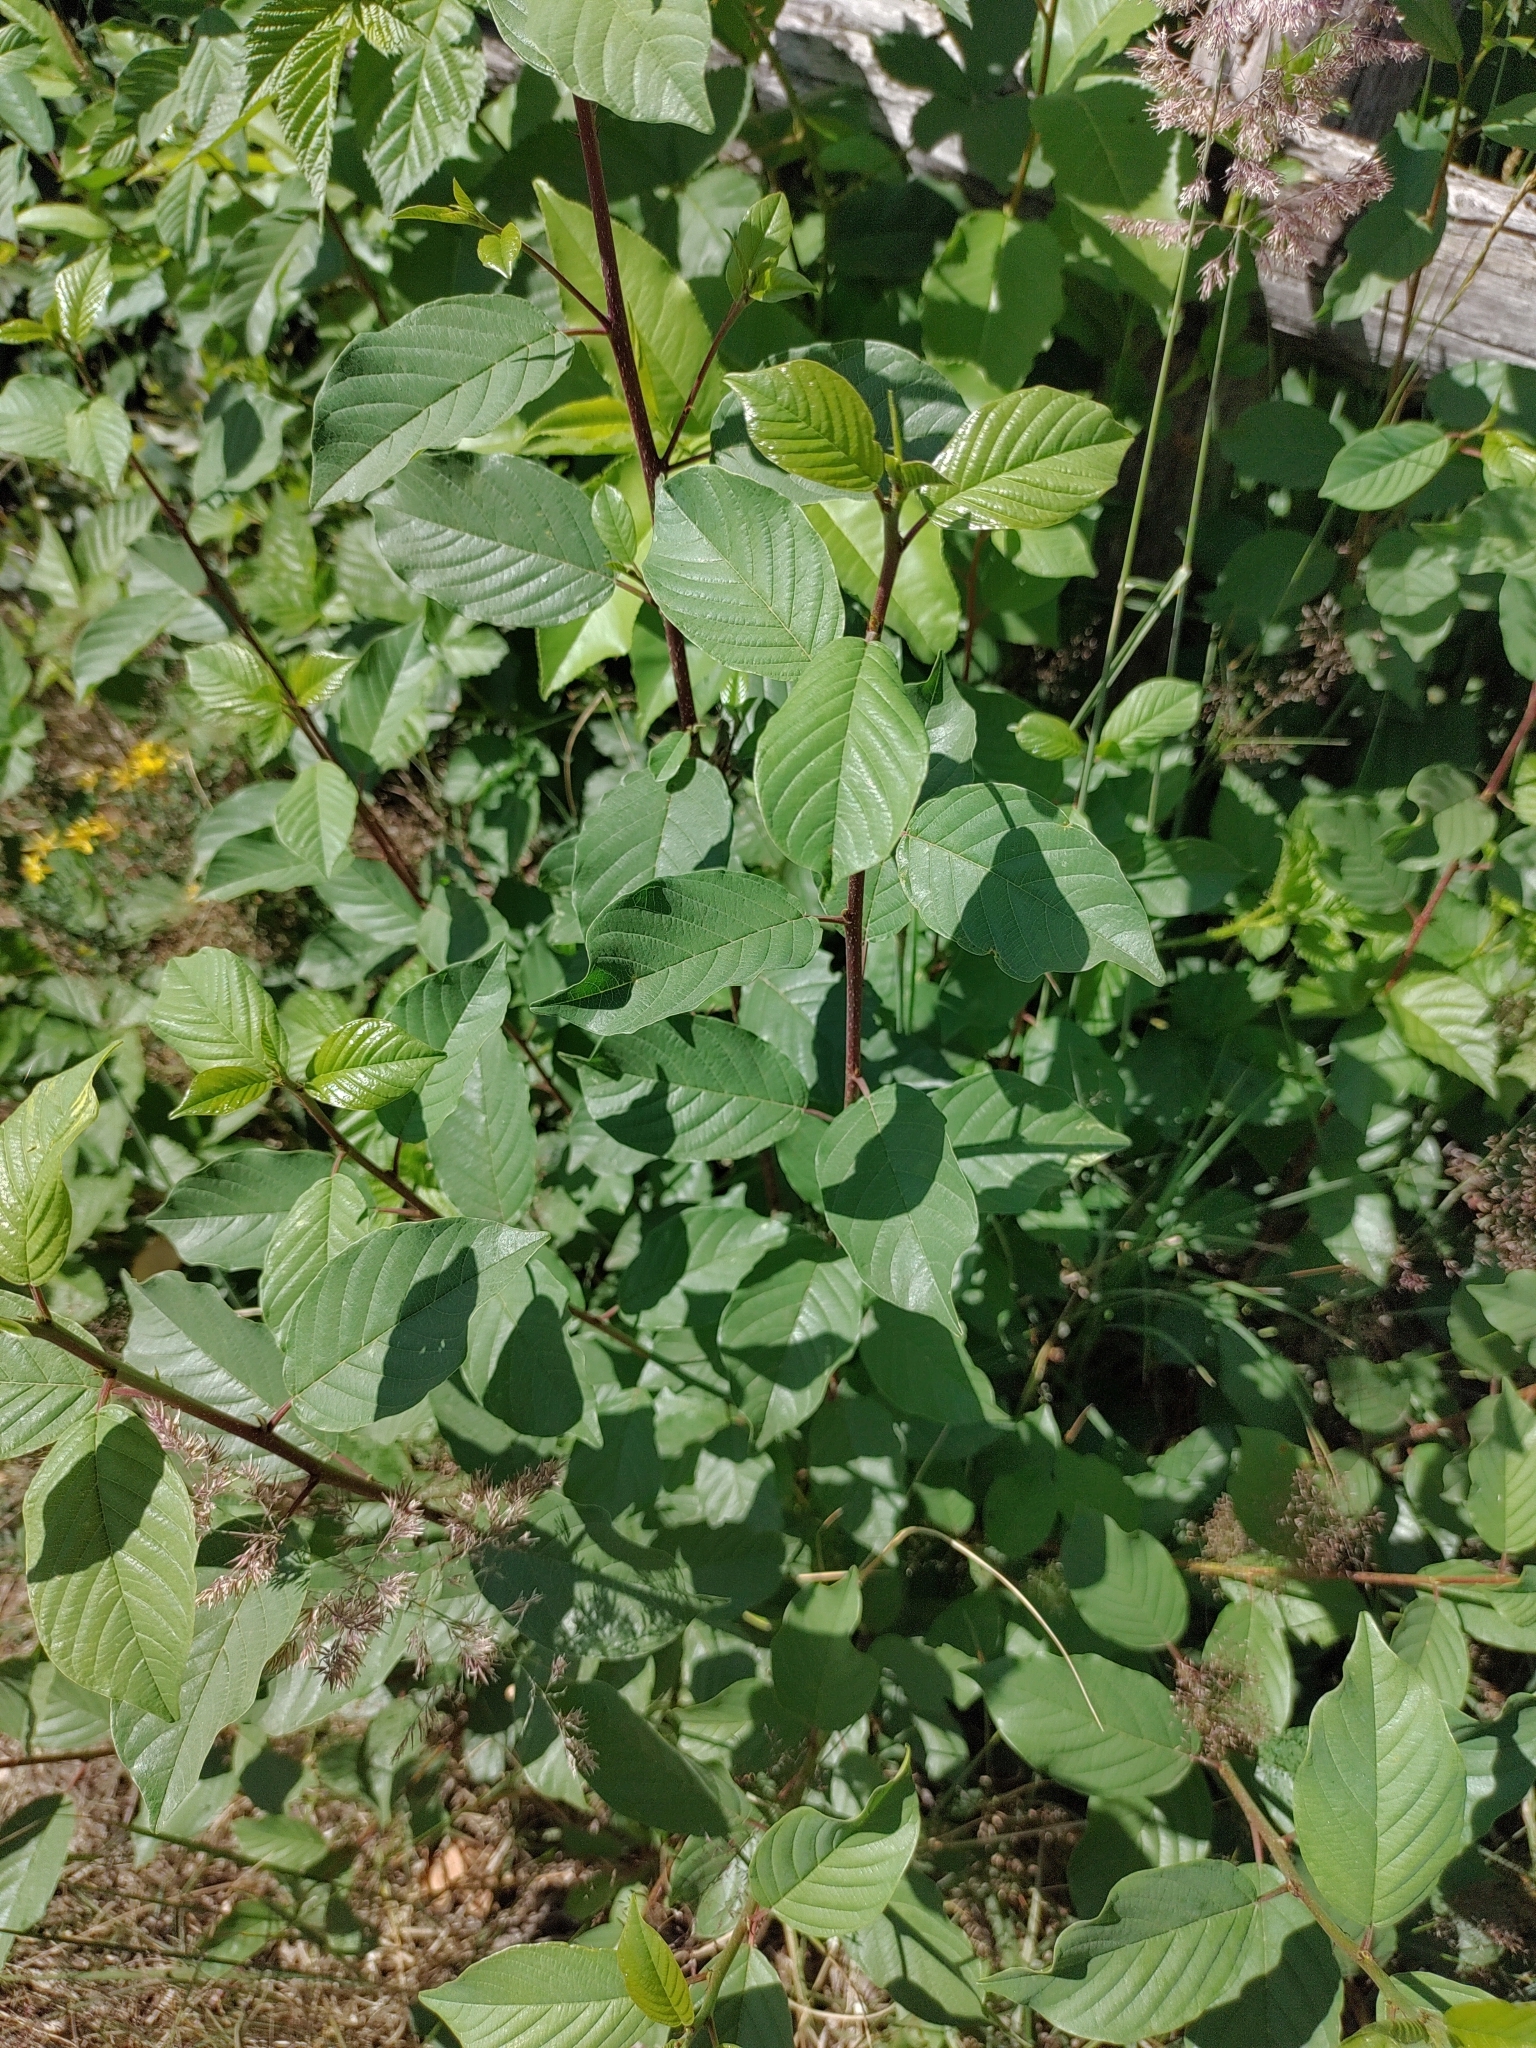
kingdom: Plantae
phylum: Tracheophyta
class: Magnoliopsida
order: Rosales
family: Rhamnaceae
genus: Frangula
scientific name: Frangula alnus
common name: Alder buckthorn
